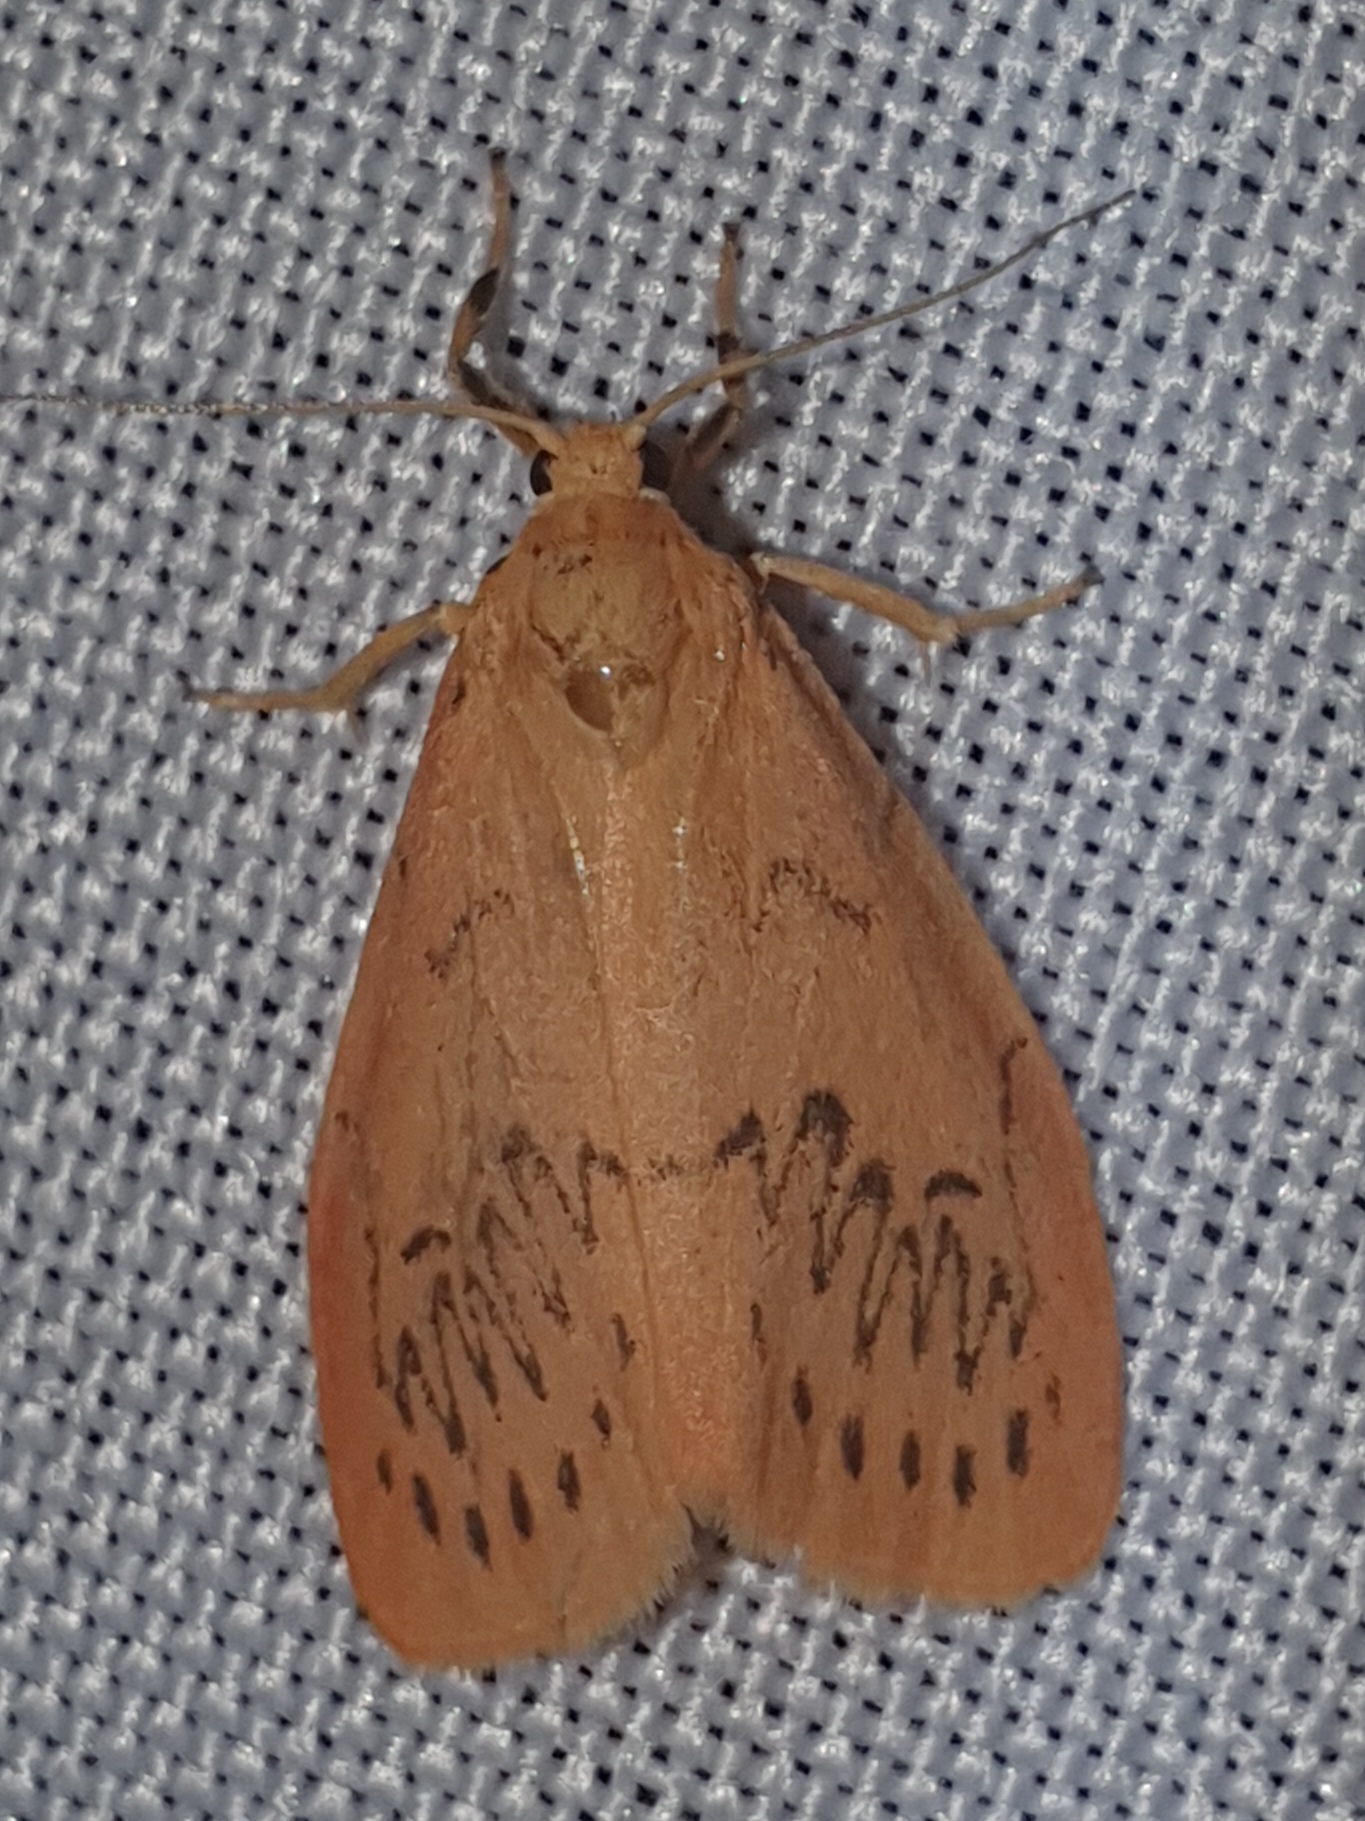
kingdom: Animalia
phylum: Arthropoda
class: Insecta
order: Lepidoptera
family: Erebidae
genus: Miltochrista
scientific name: Miltochrista miniata
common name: Rosy footman
